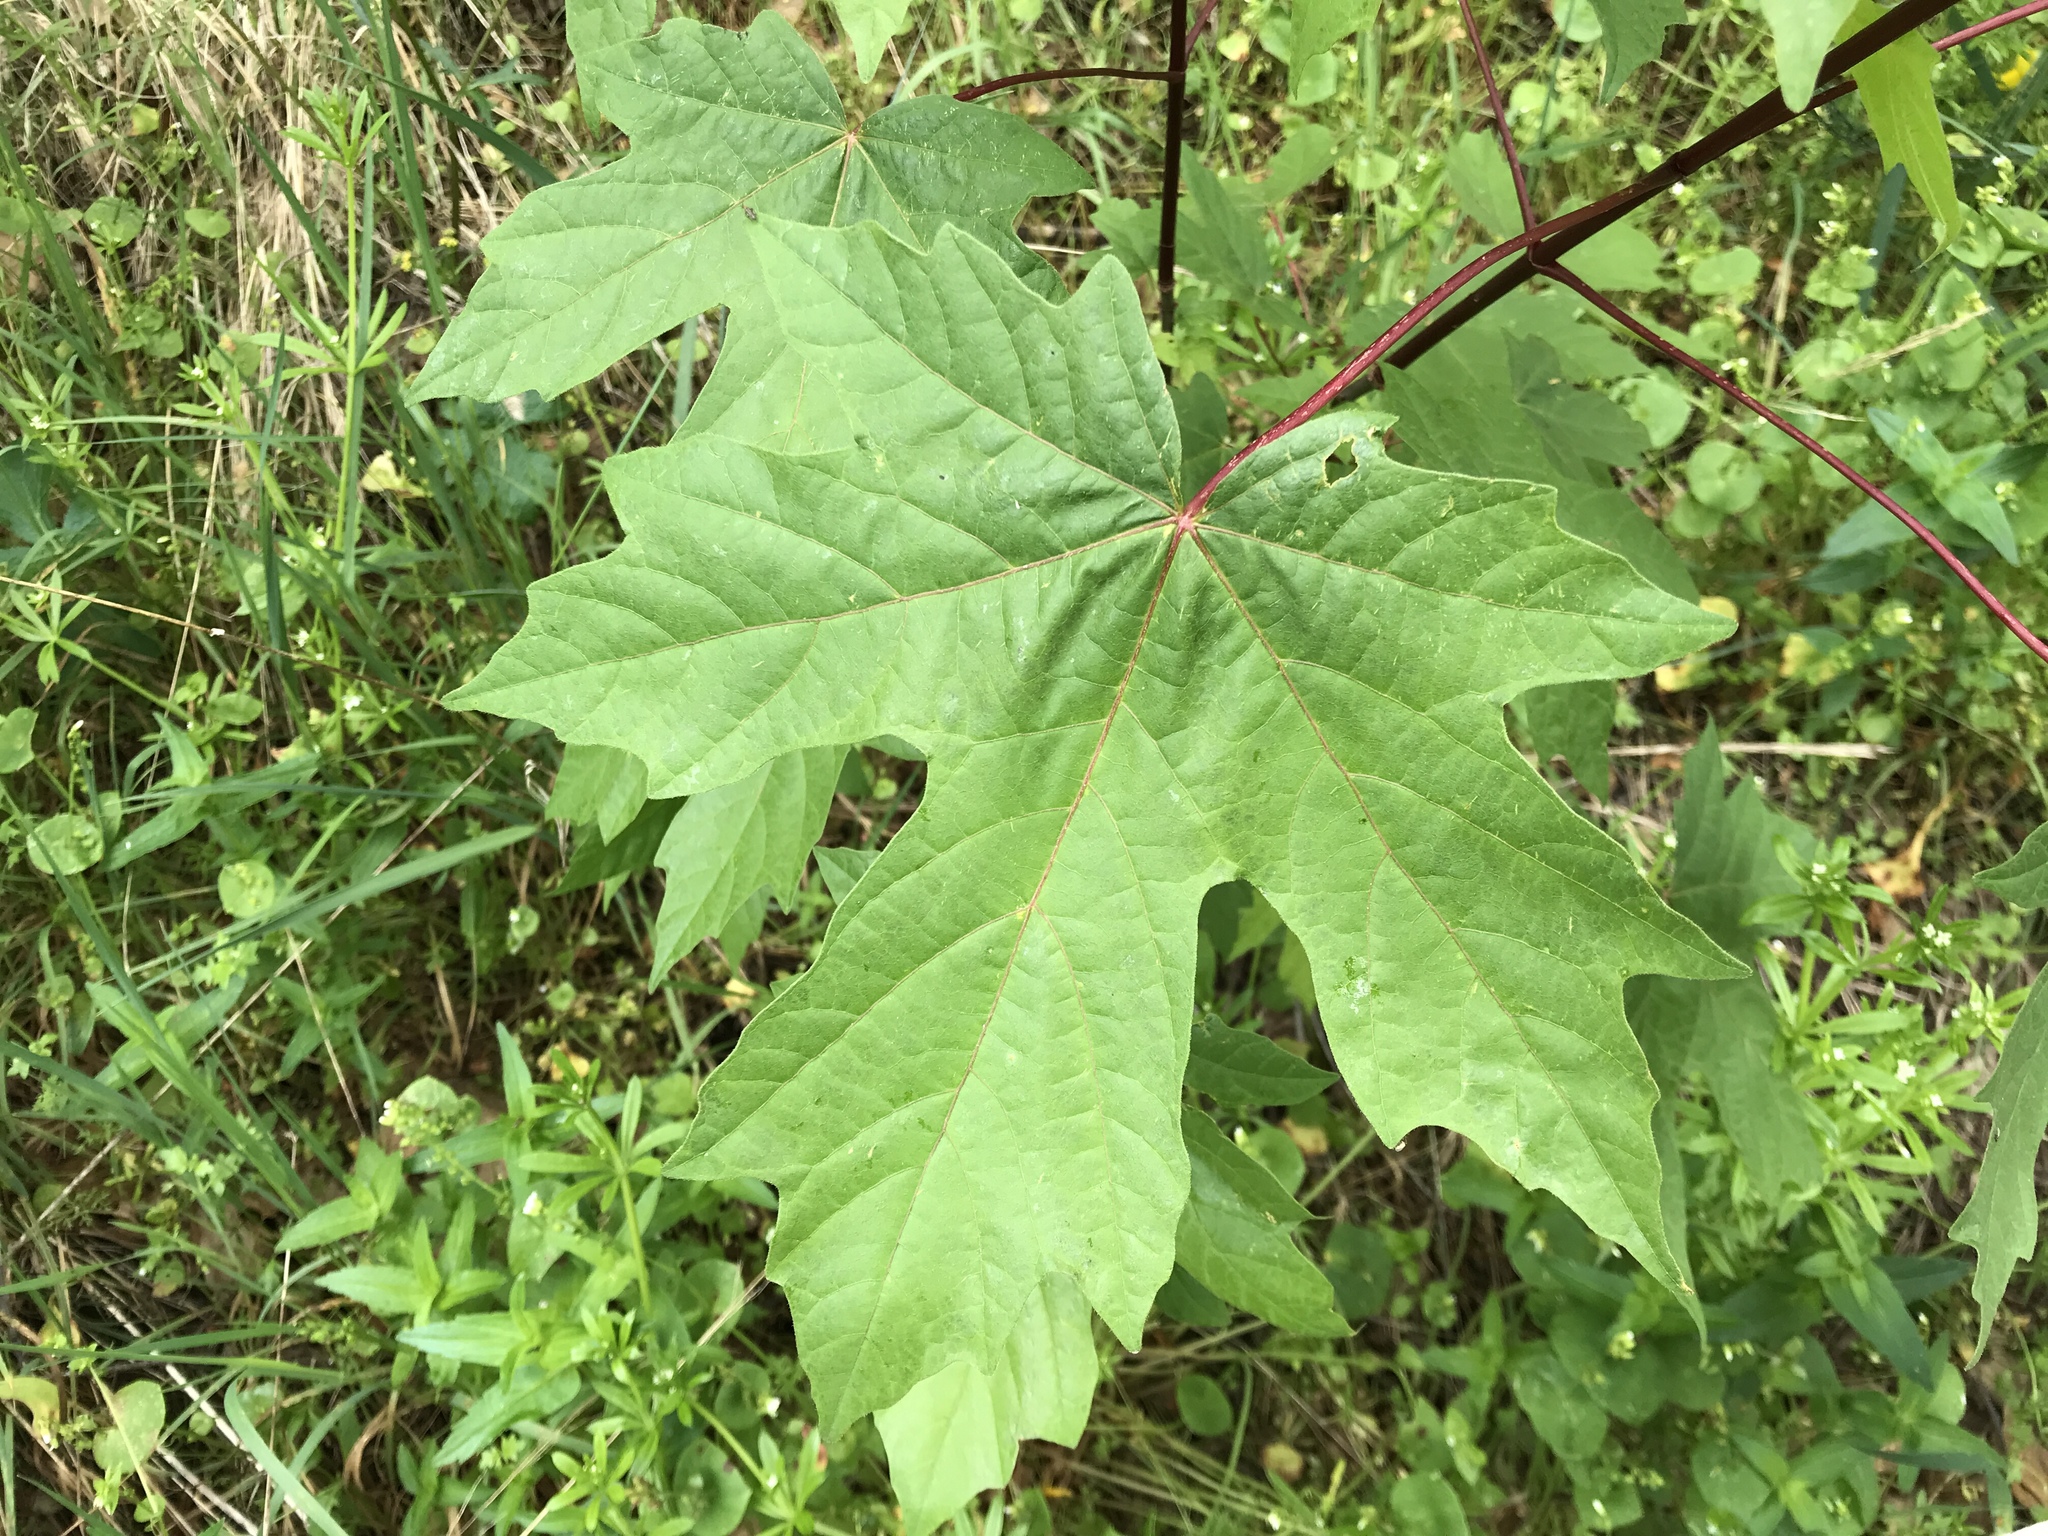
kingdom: Plantae
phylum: Tracheophyta
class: Magnoliopsida
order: Sapindales
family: Sapindaceae
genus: Acer
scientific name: Acer macrophyllum
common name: Oregon maple
